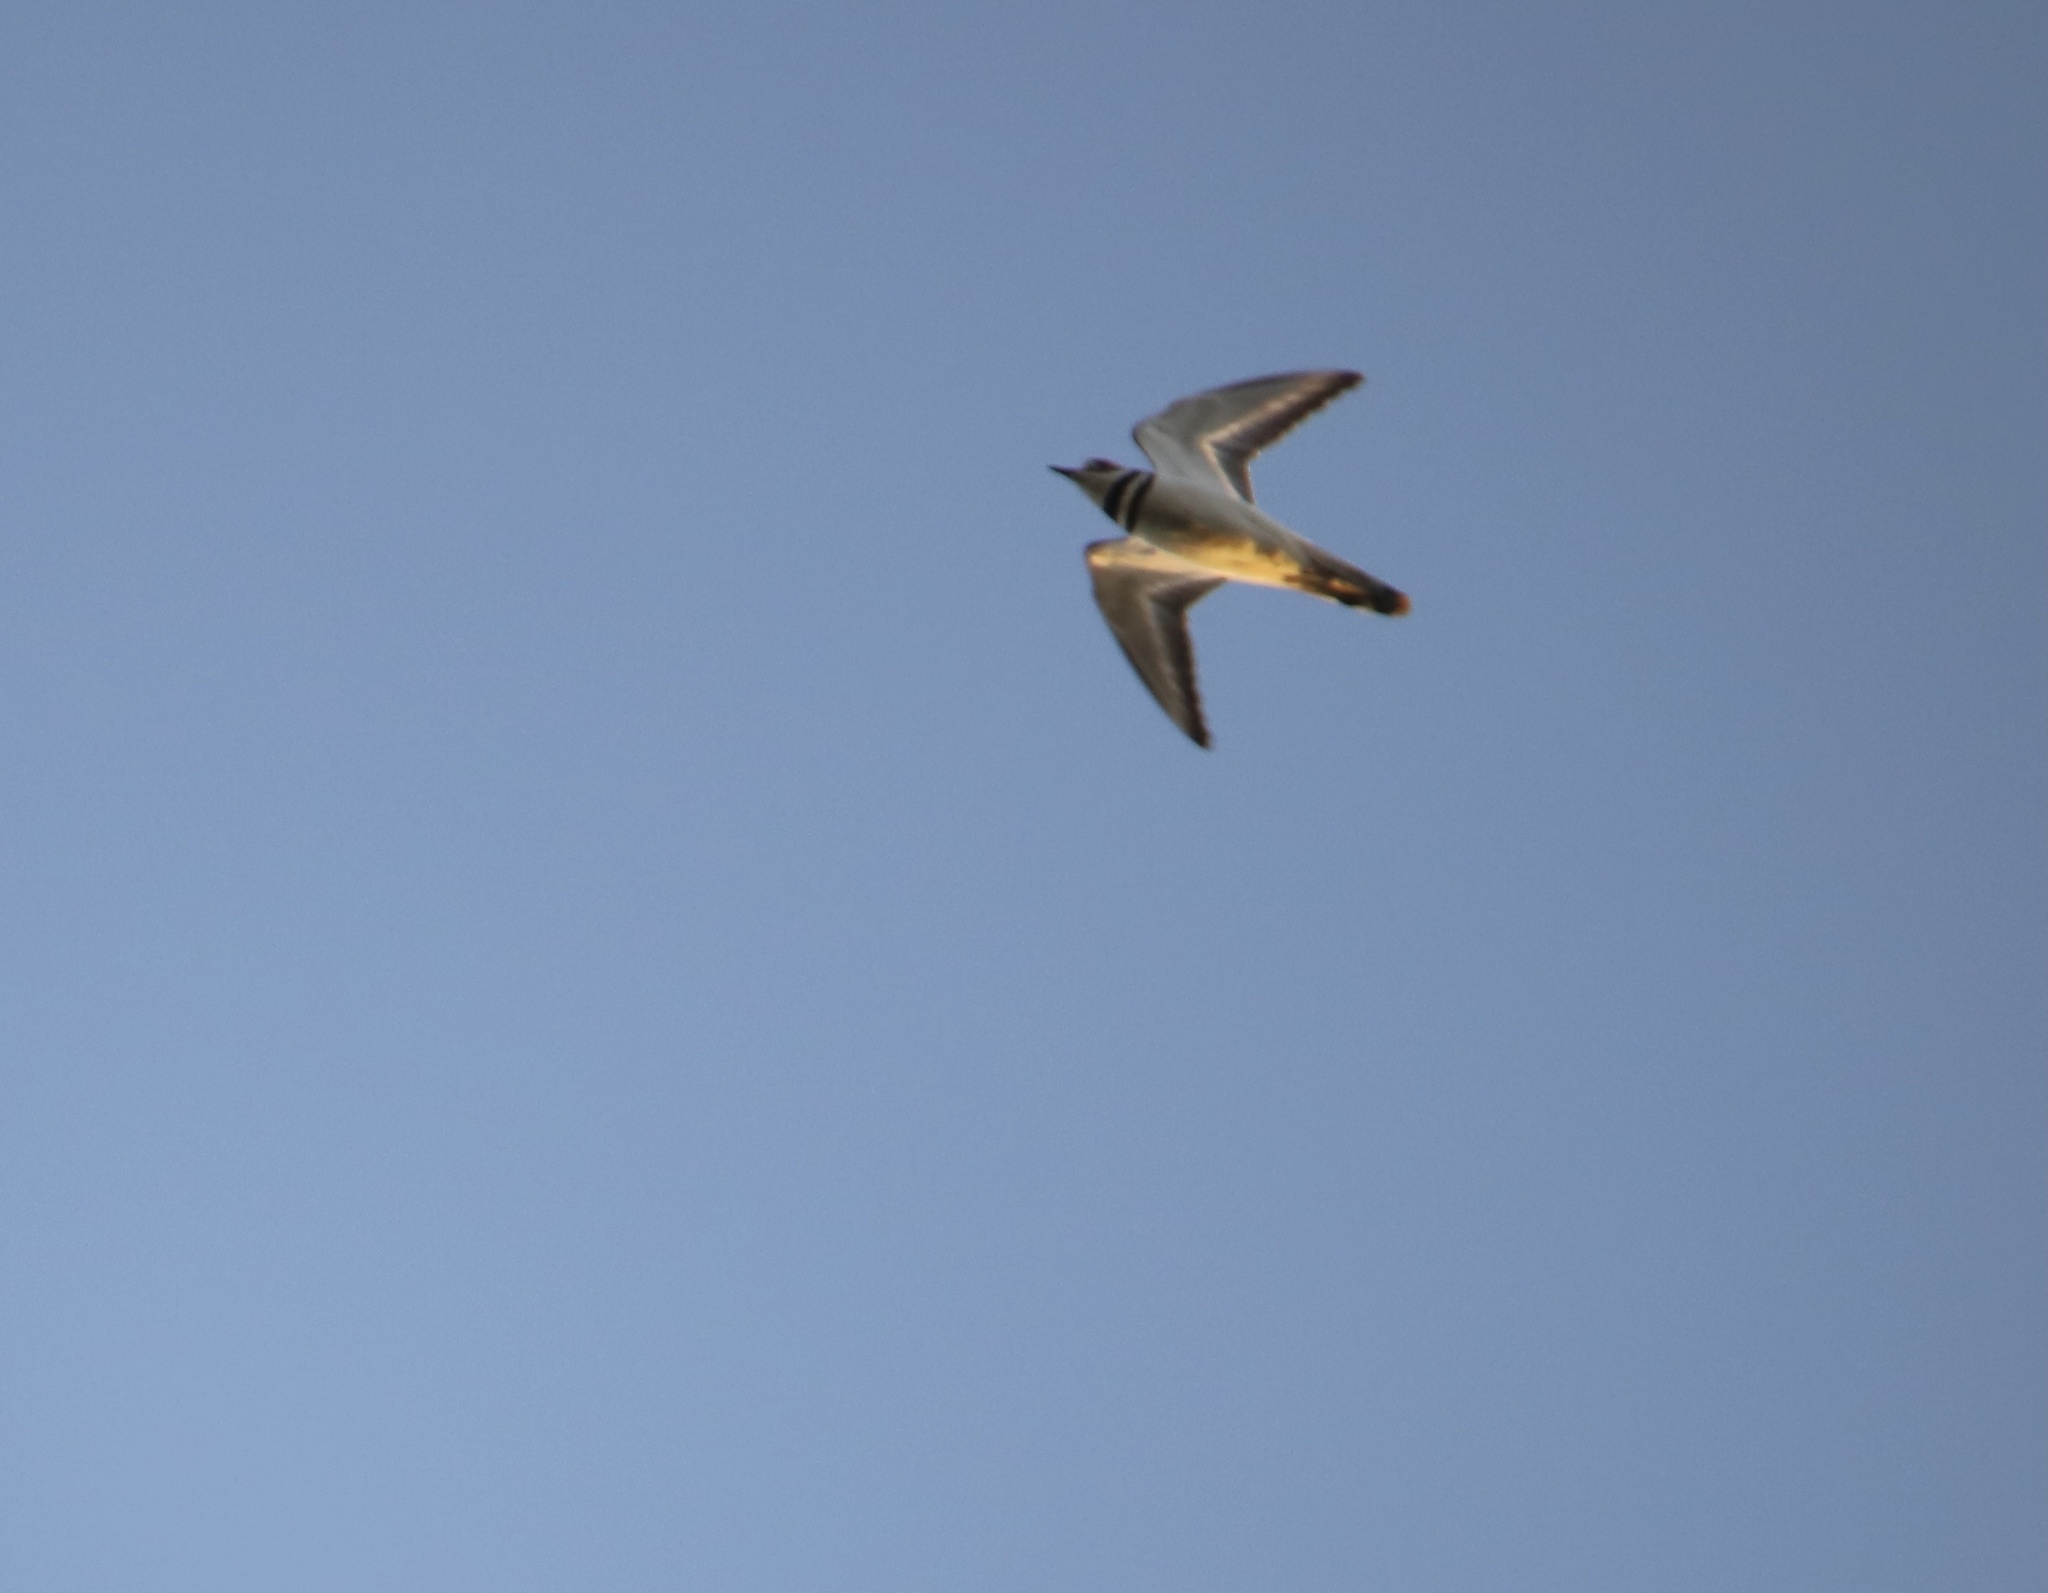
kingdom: Animalia
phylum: Chordata
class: Aves
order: Charadriiformes
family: Charadriidae
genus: Charadrius
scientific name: Charadrius vociferus
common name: Killdeer
